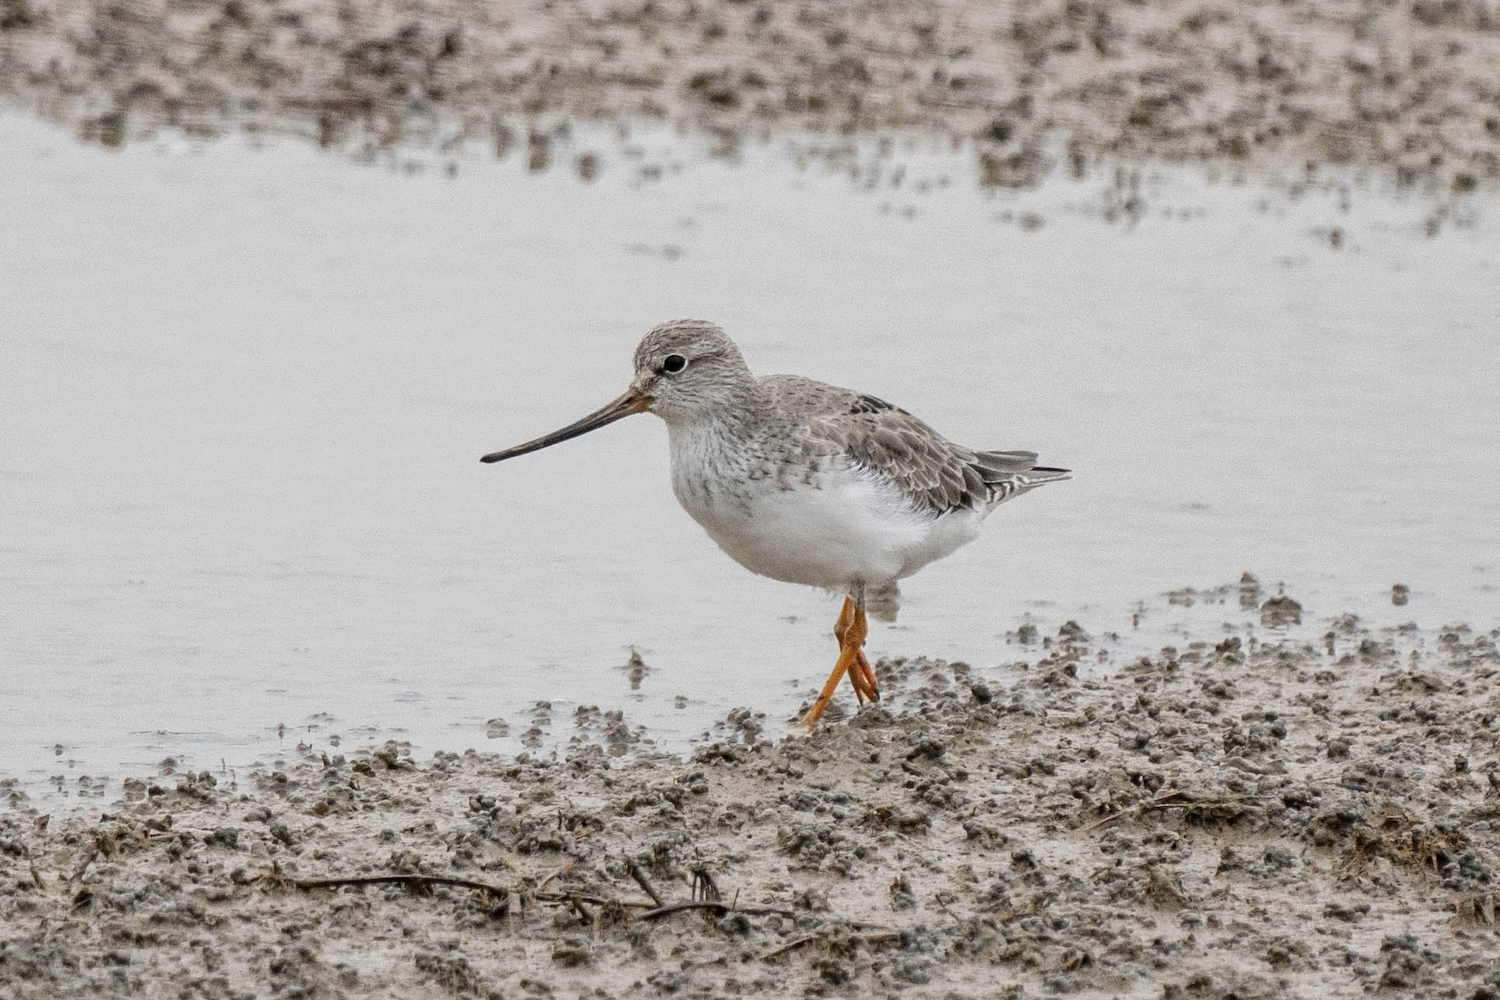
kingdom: Animalia
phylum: Chordata
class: Aves
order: Charadriiformes
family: Scolopacidae
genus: Xenus
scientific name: Xenus cinereus
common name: Terek sandpiper
